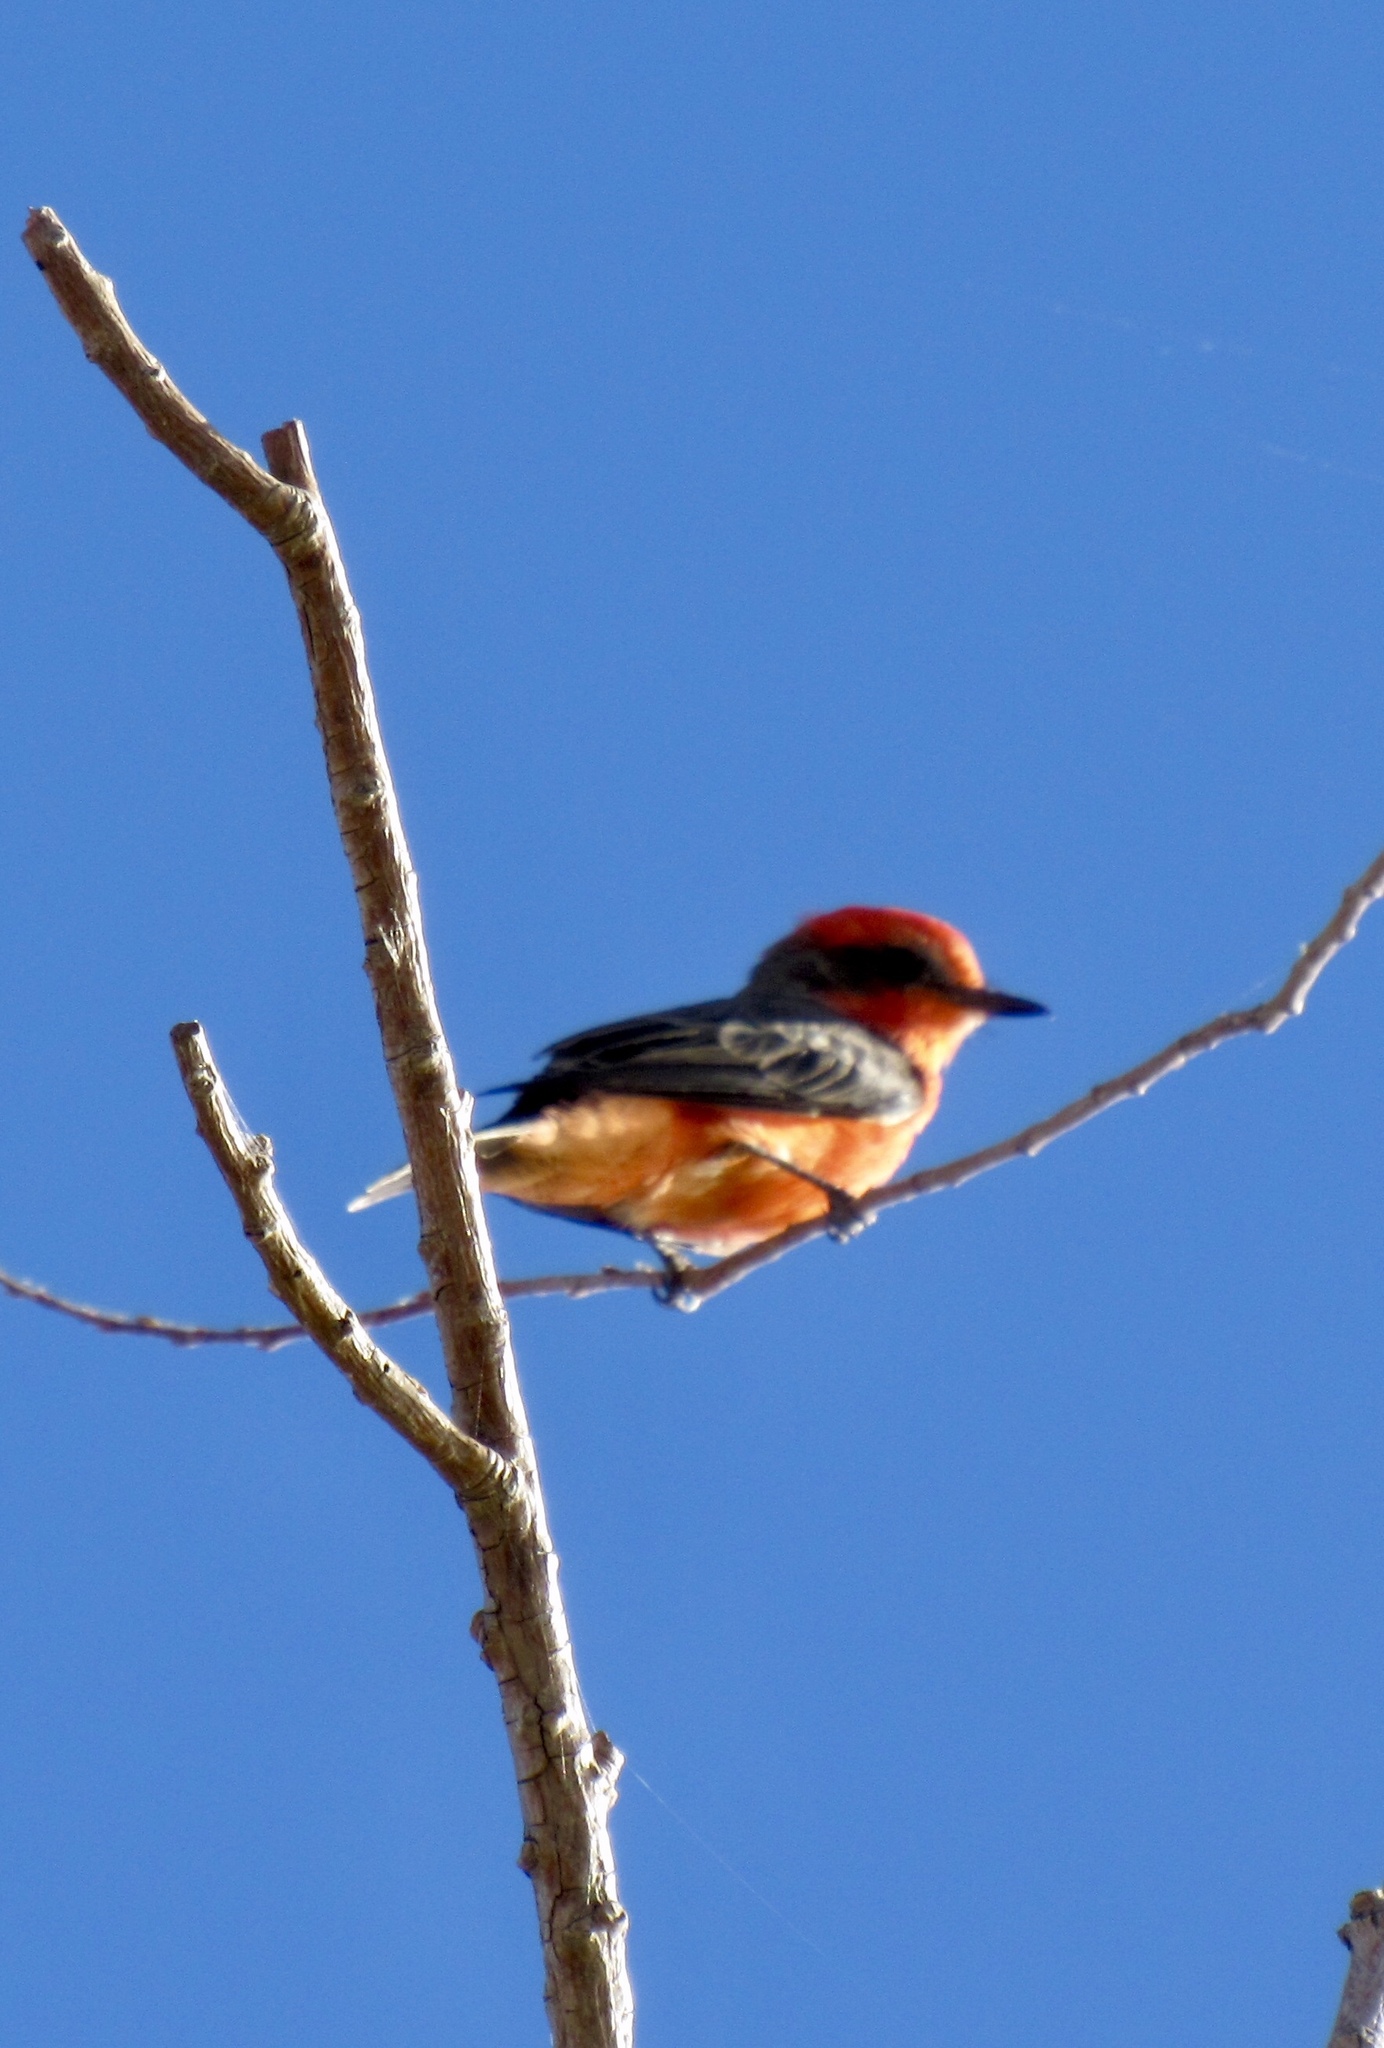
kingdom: Animalia
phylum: Chordata
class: Aves
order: Passeriformes
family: Tyrannidae
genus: Pyrocephalus
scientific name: Pyrocephalus rubinus
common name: Vermilion flycatcher
